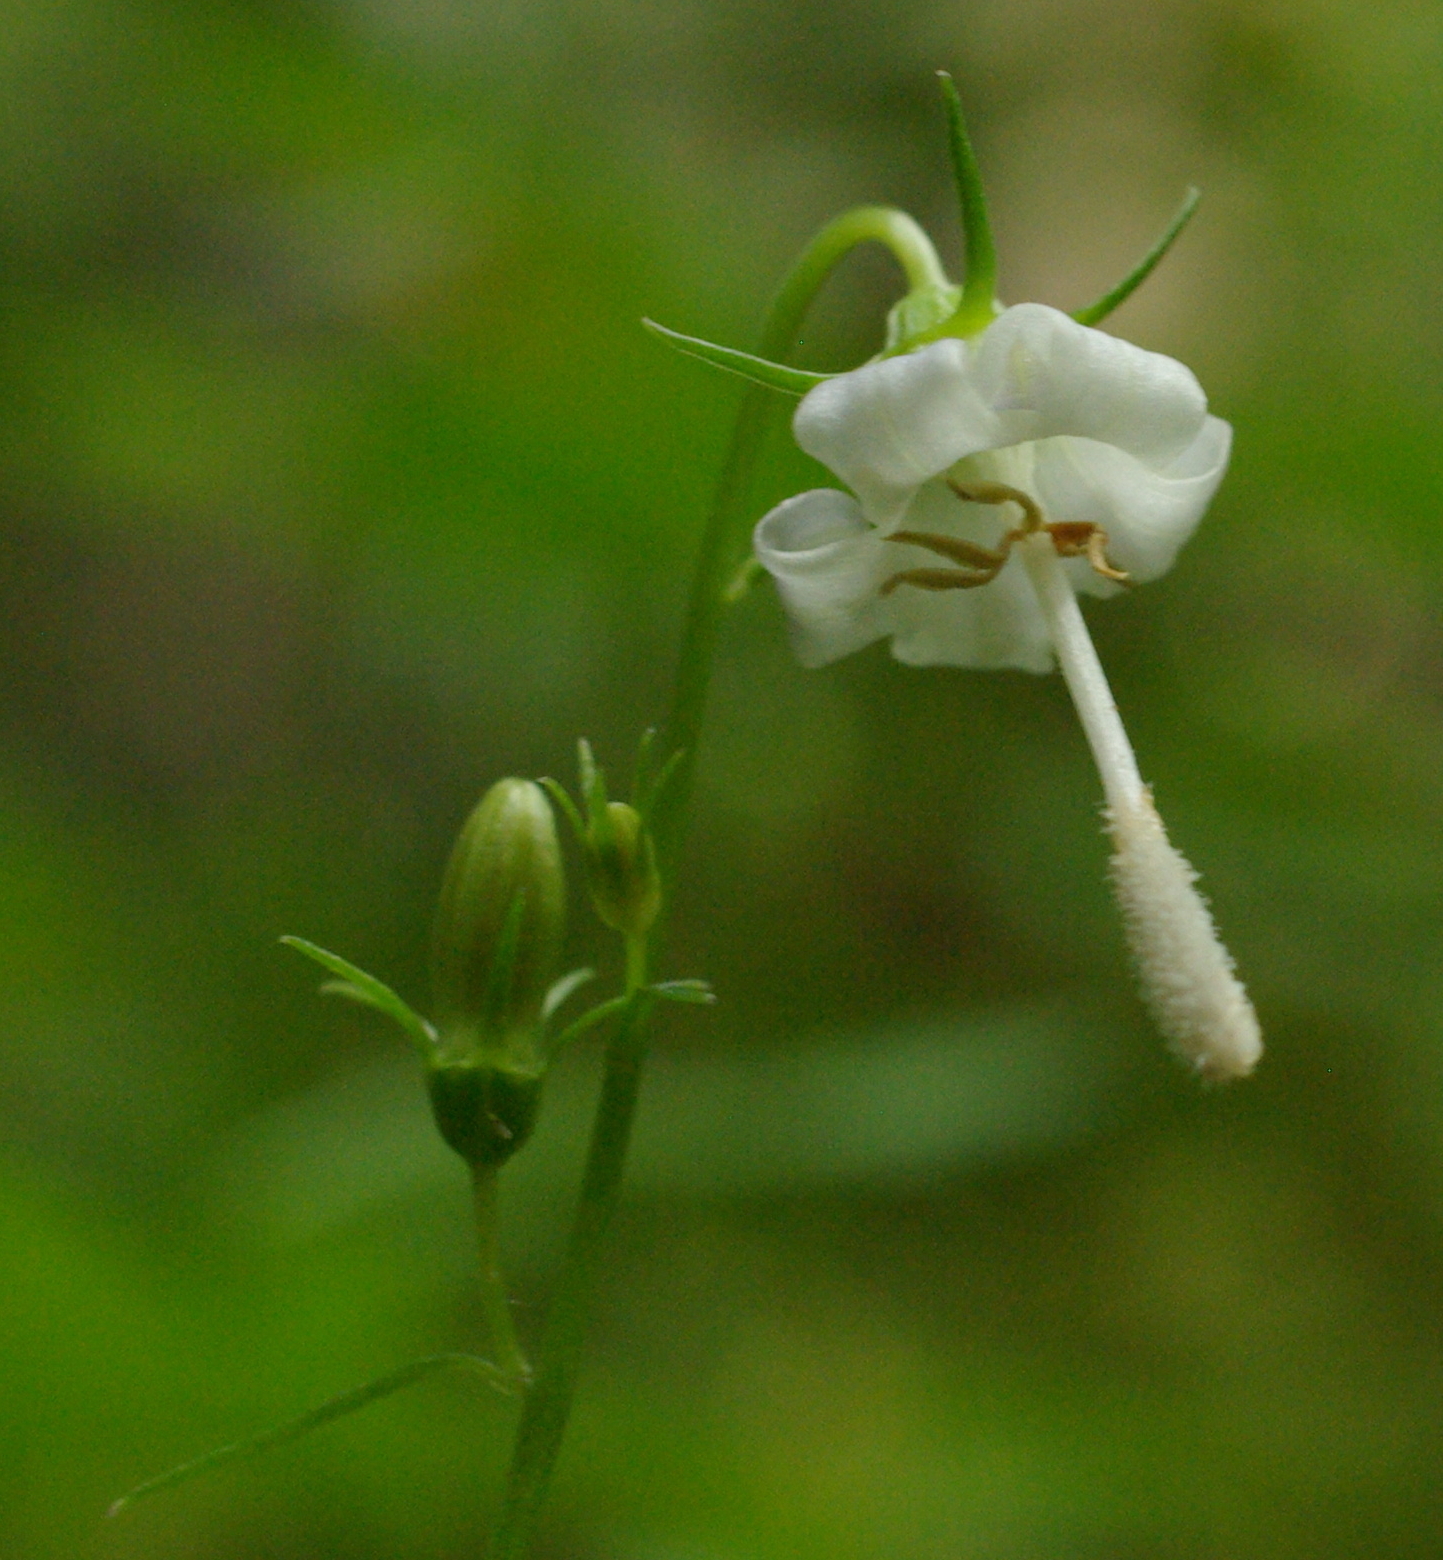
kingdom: Plantae
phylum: Tracheophyta
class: Magnoliopsida
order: Asterales
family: Campanulaceae
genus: Campanula
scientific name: Campanula scouleri
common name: Scouler's harebell
